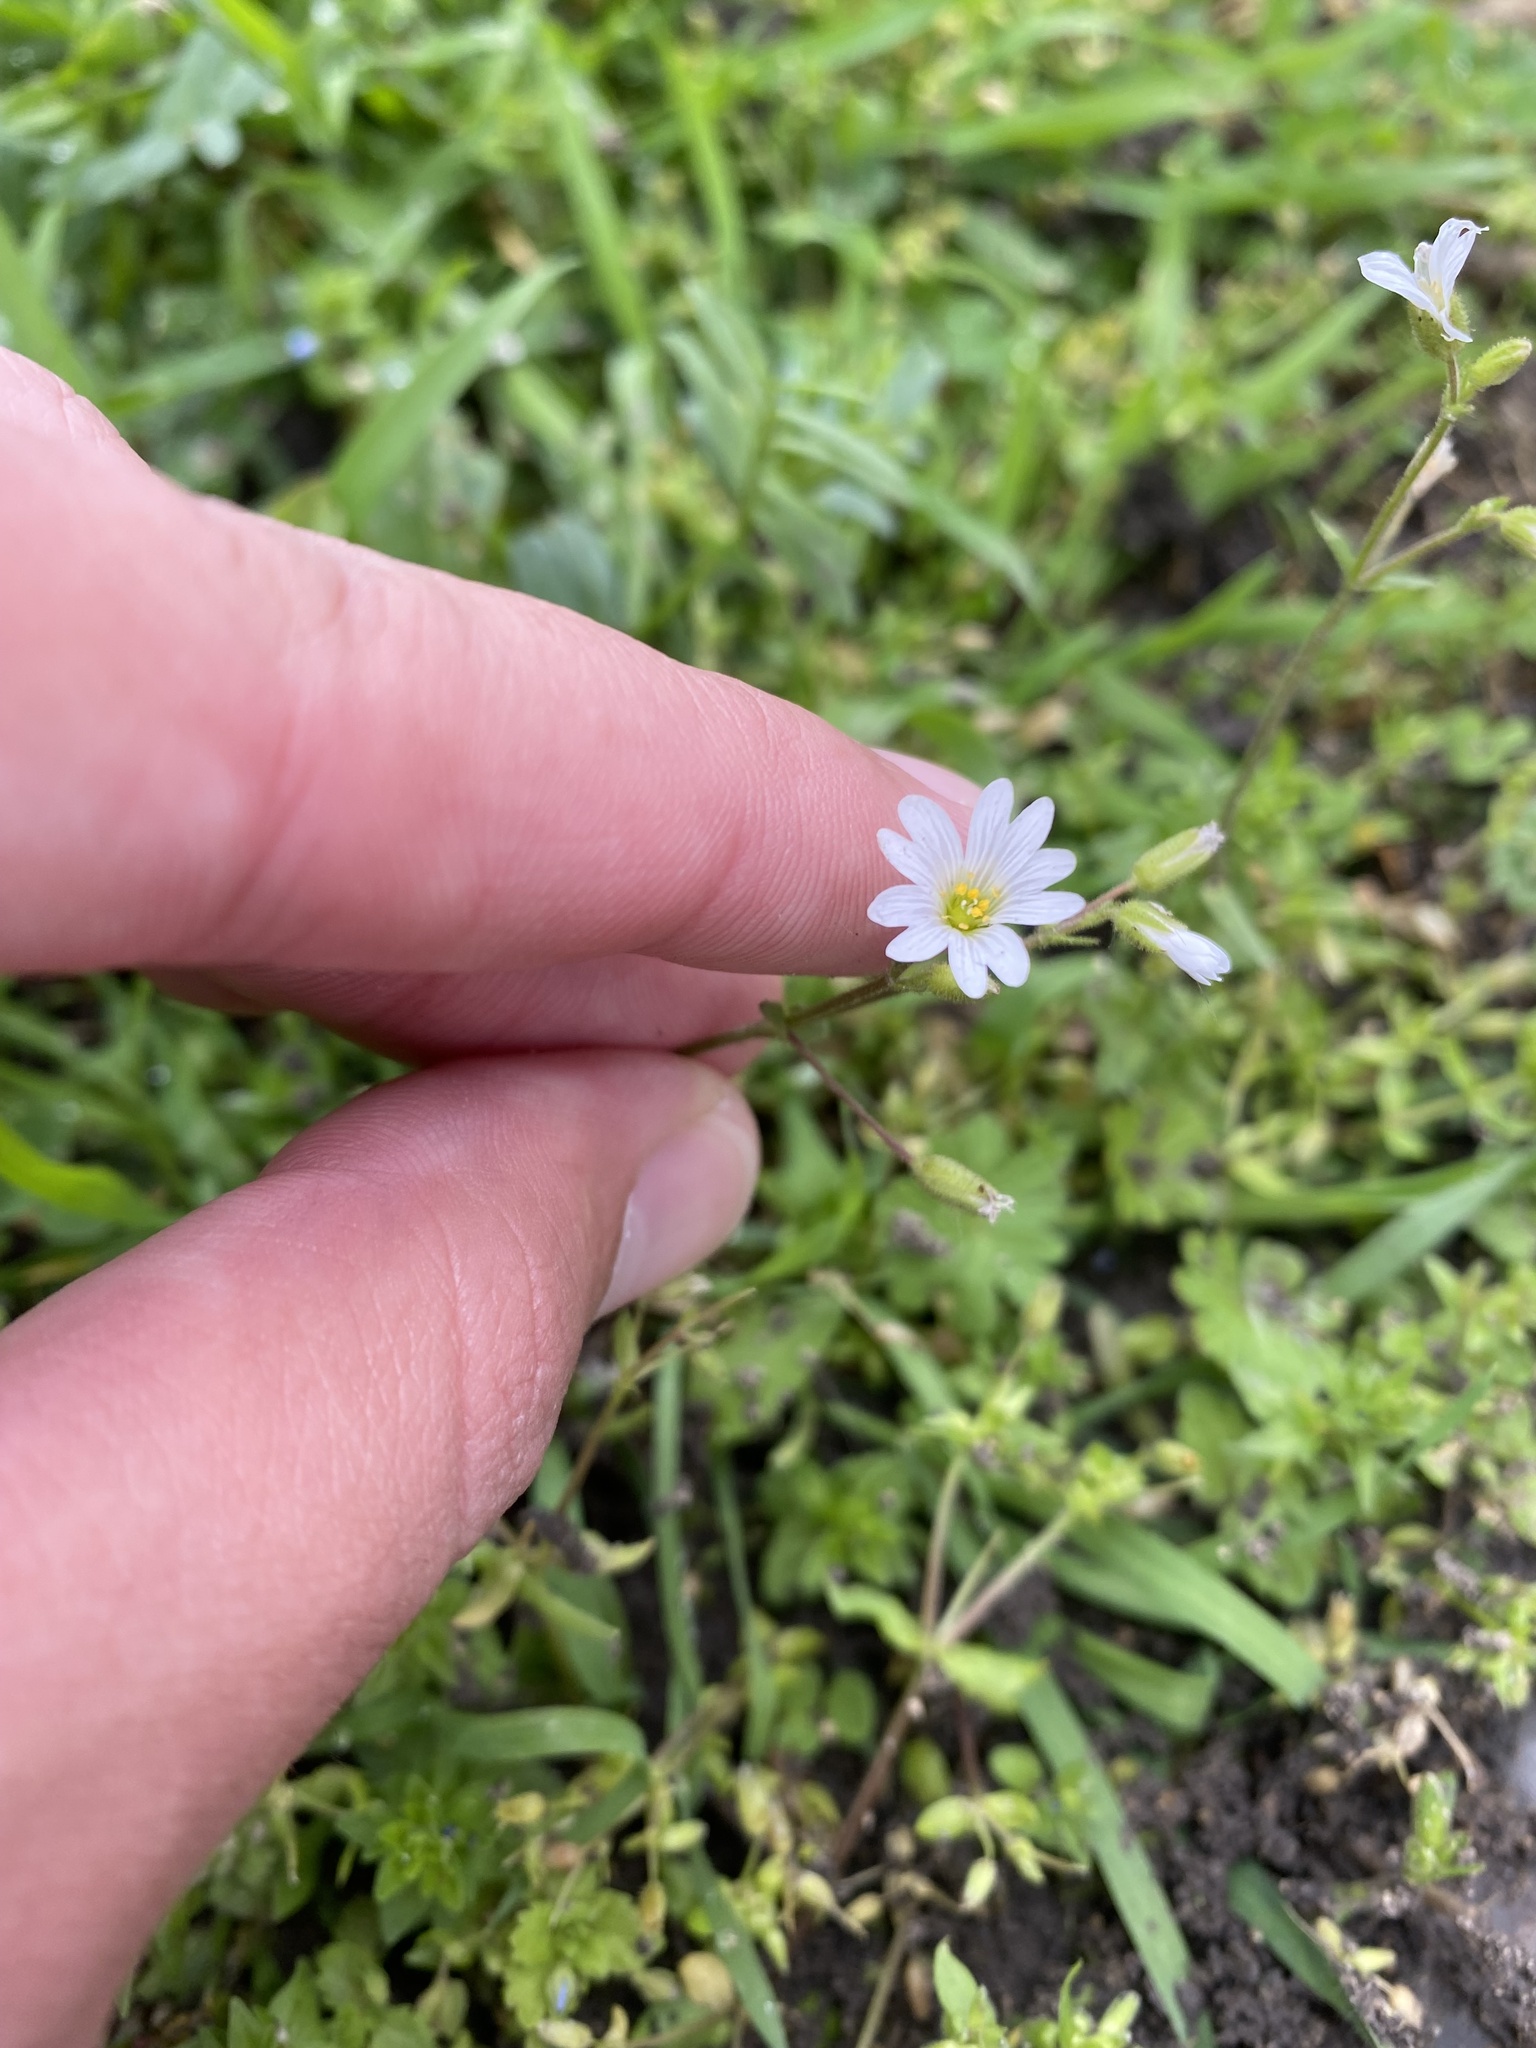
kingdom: Plantae
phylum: Tracheophyta
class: Magnoliopsida
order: Caryophyllales
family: Caryophyllaceae
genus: Dichodon
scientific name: Dichodon viscidum
